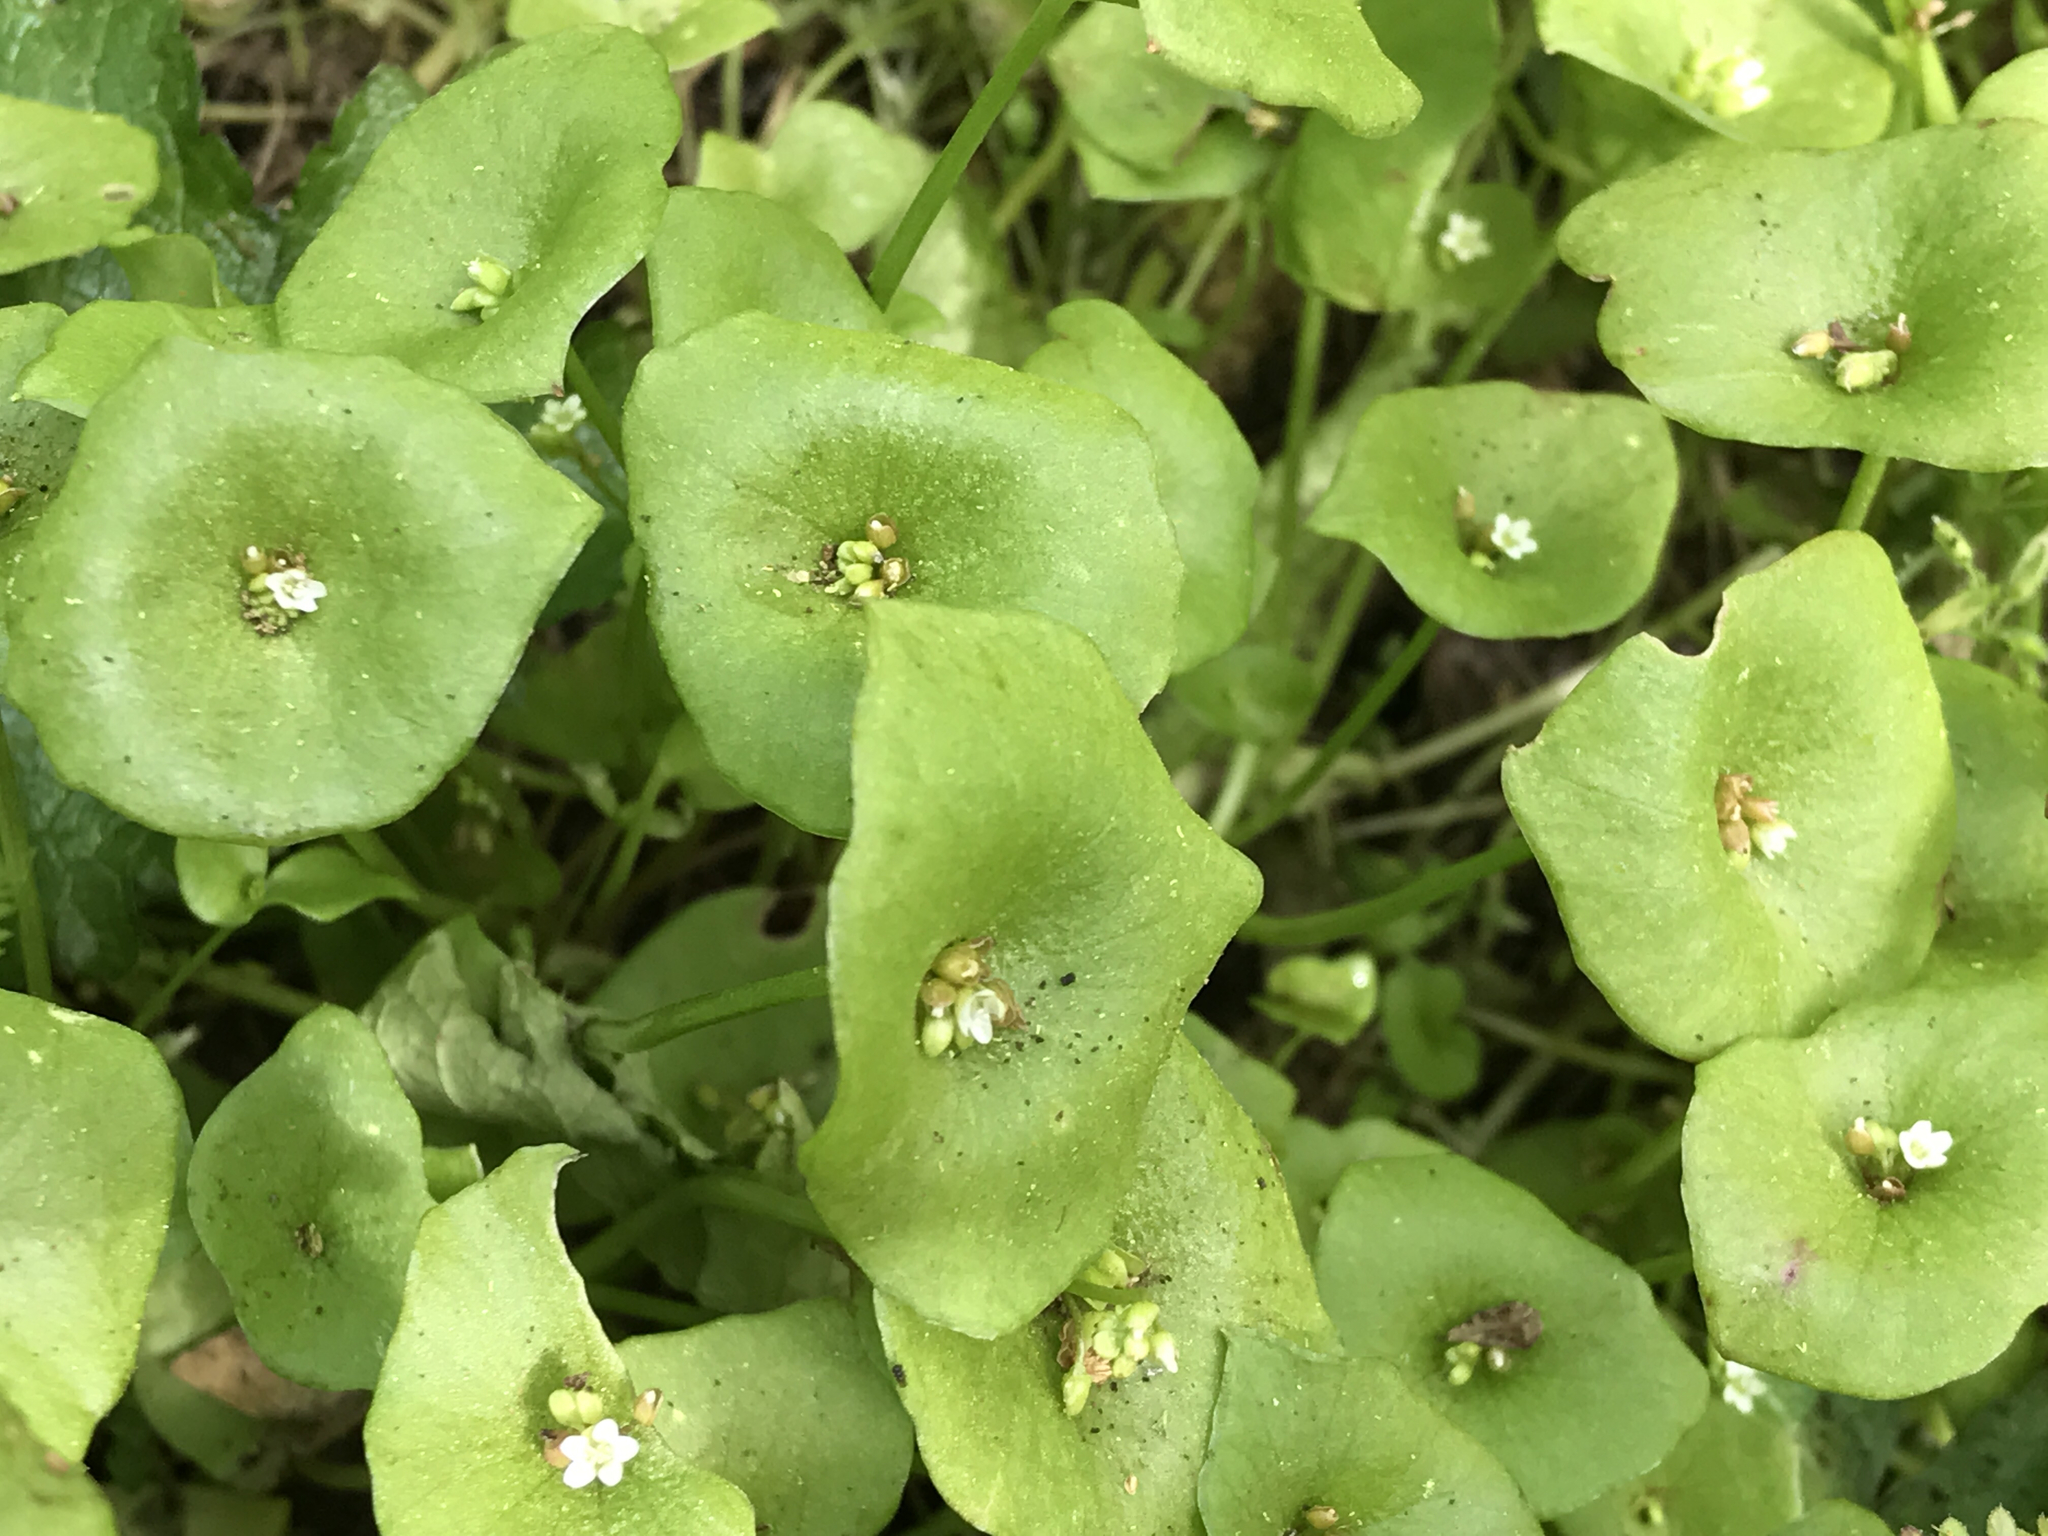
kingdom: Plantae
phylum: Tracheophyta
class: Magnoliopsida
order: Caryophyllales
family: Montiaceae
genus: Claytonia
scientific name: Claytonia perfoliata
